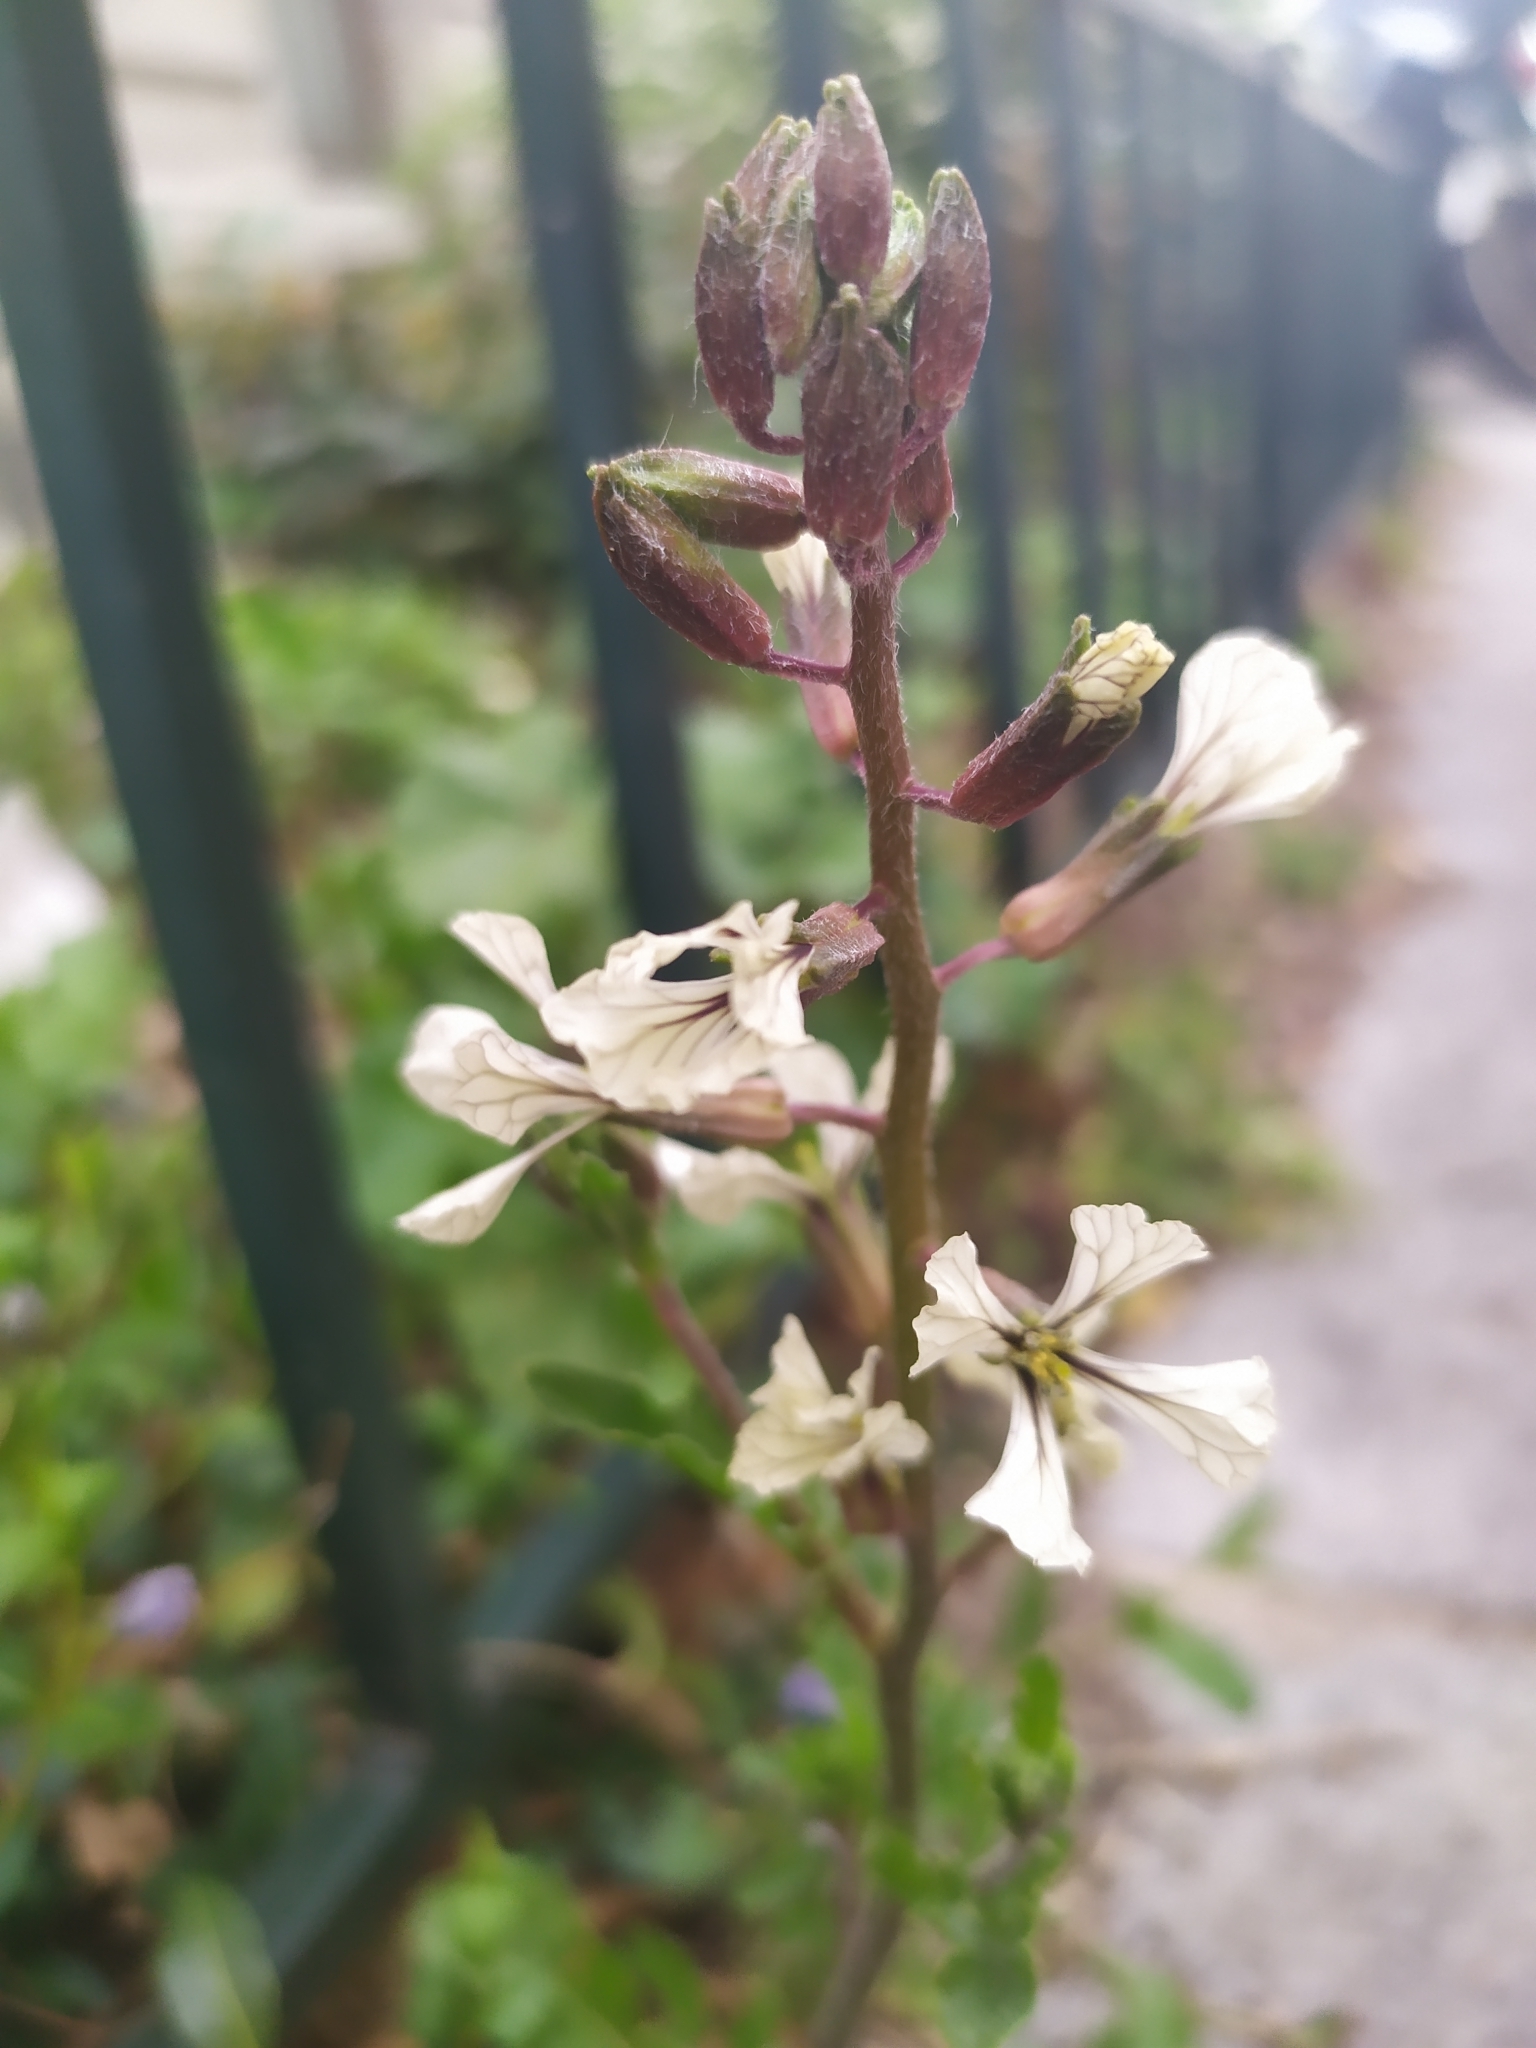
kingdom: Plantae
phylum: Tracheophyta
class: Magnoliopsida
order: Brassicales
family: Brassicaceae
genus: Eruca
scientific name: Eruca vesicaria
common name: Garden rocket
